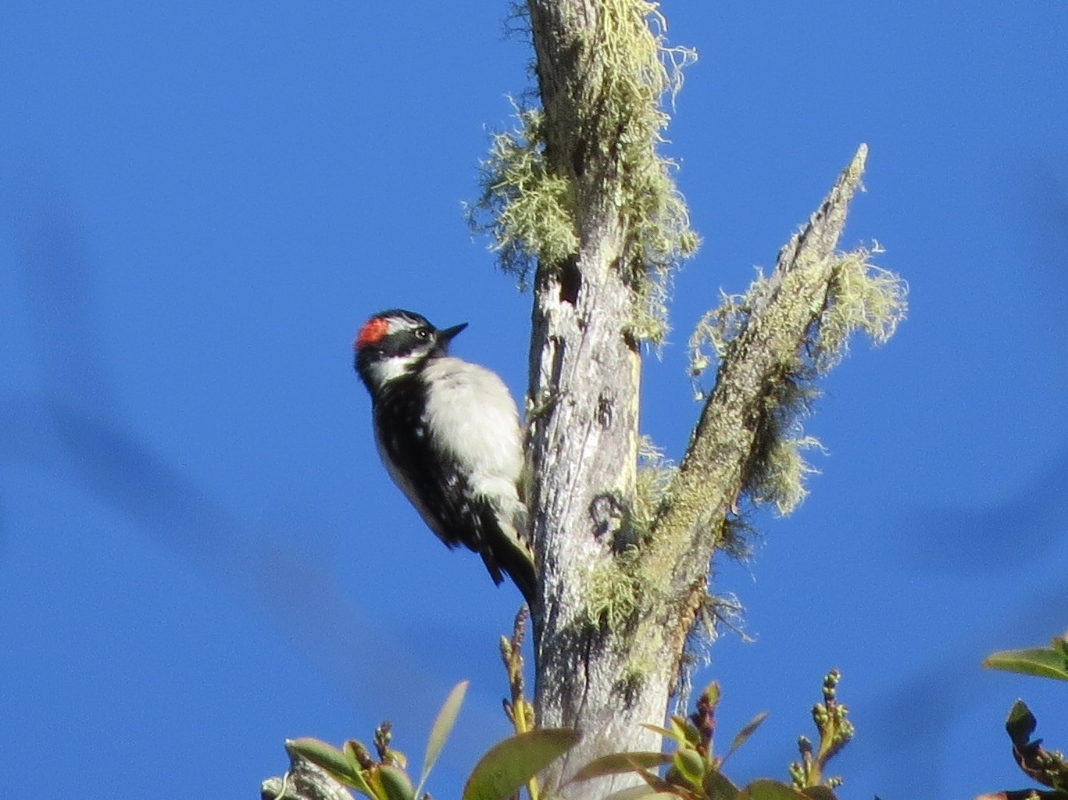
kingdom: Animalia
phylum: Chordata
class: Aves
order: Piciformes
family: Picidae
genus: Dryobates
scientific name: Dryobates pubescens
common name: Downy woodpecker
